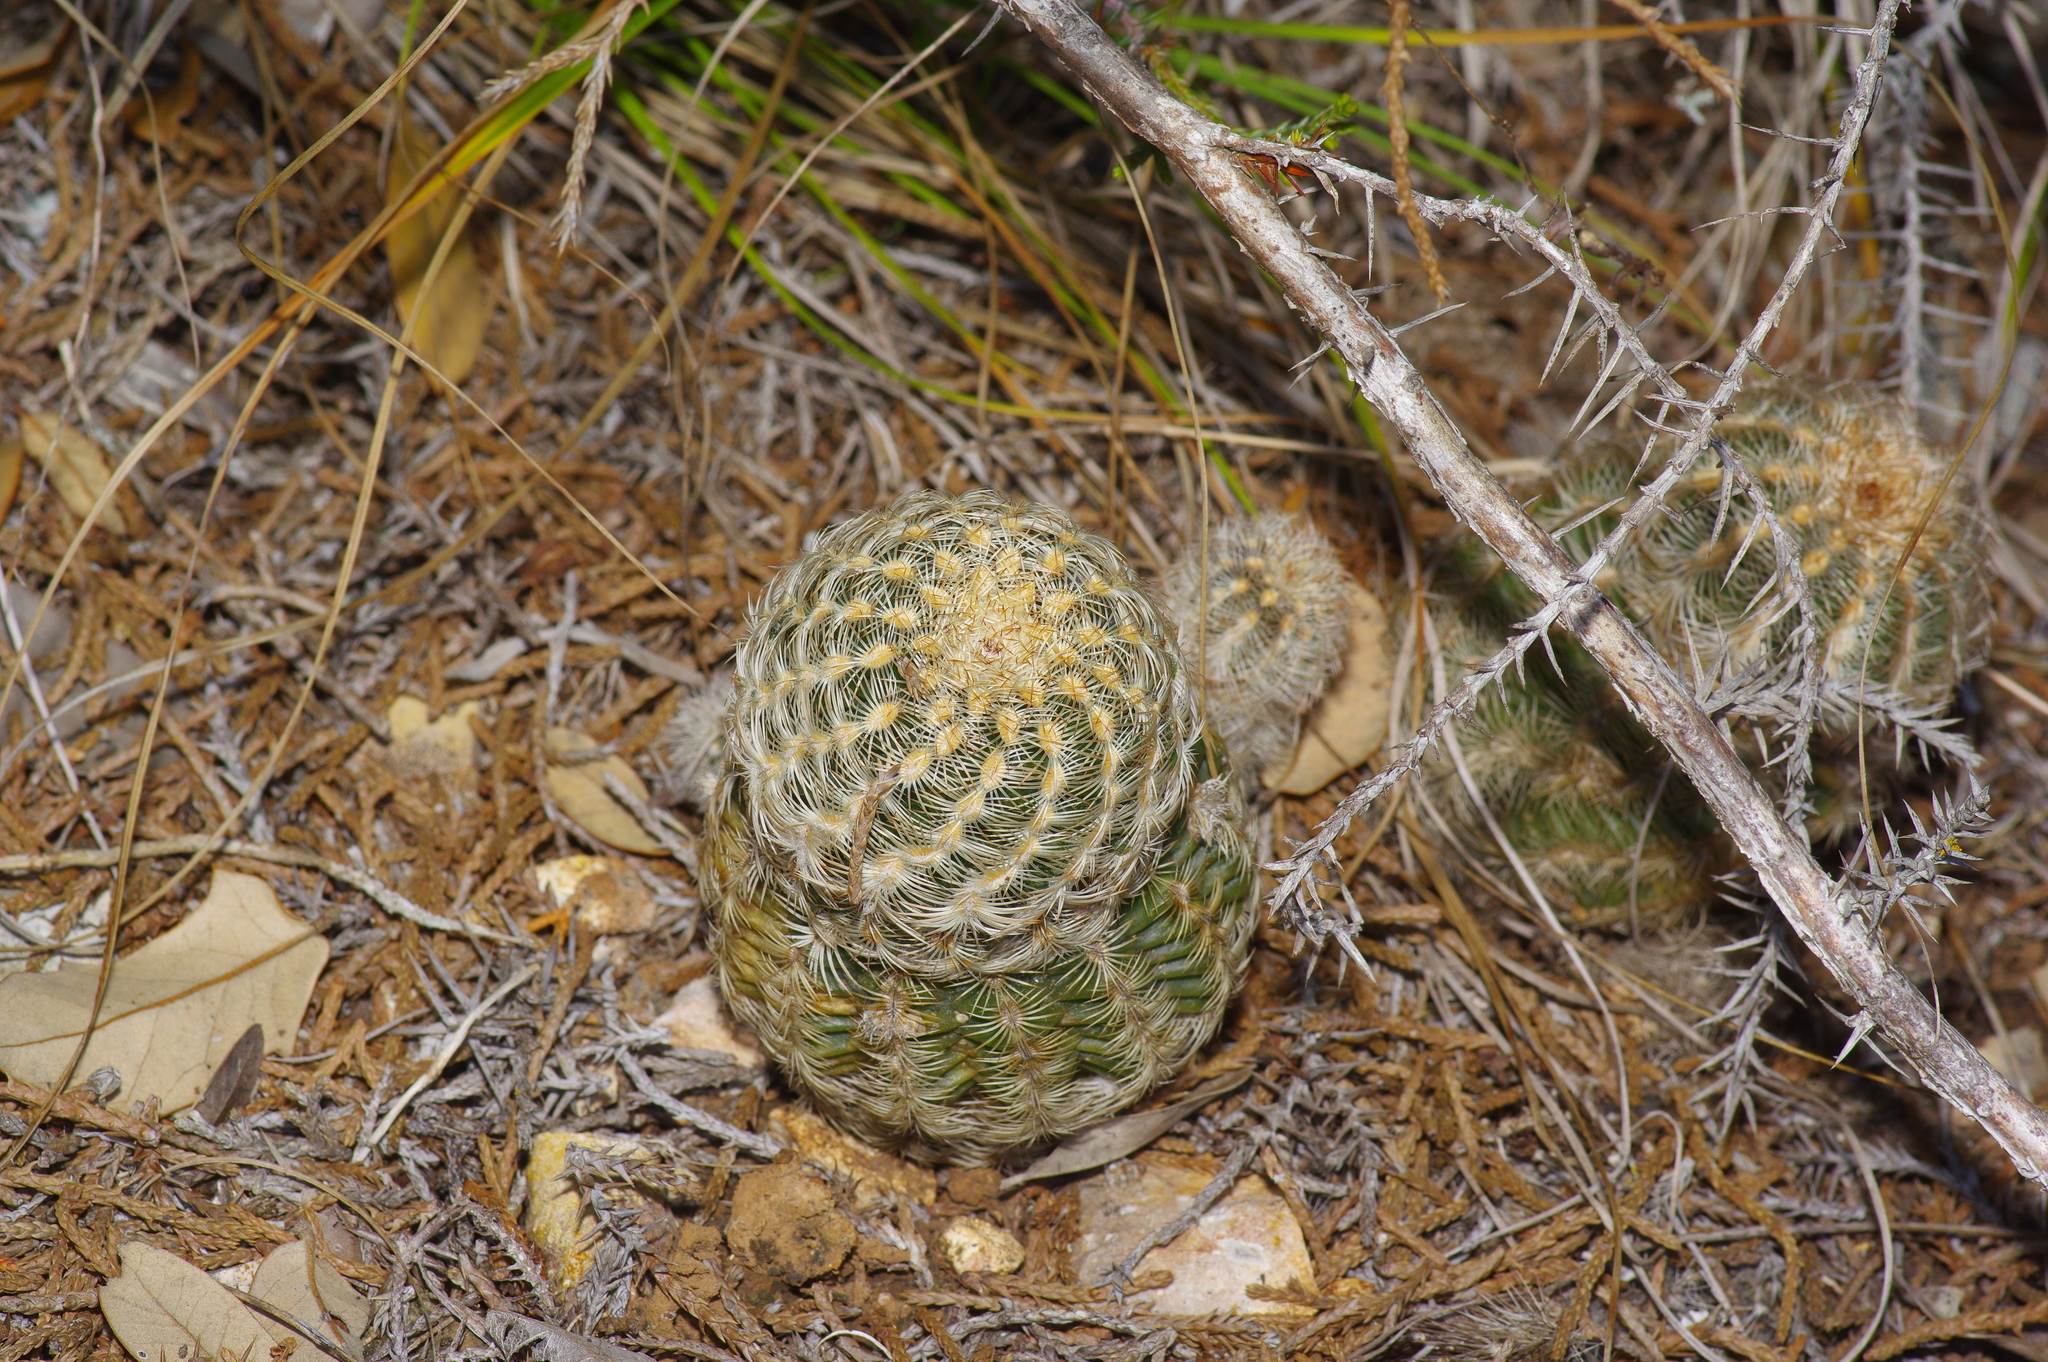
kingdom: Plantae
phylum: Tracheophyta
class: Magnoliopsida
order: Caryophyllales
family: Cactaceae
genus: Echinocereus
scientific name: Echinocereus reichenbachii
